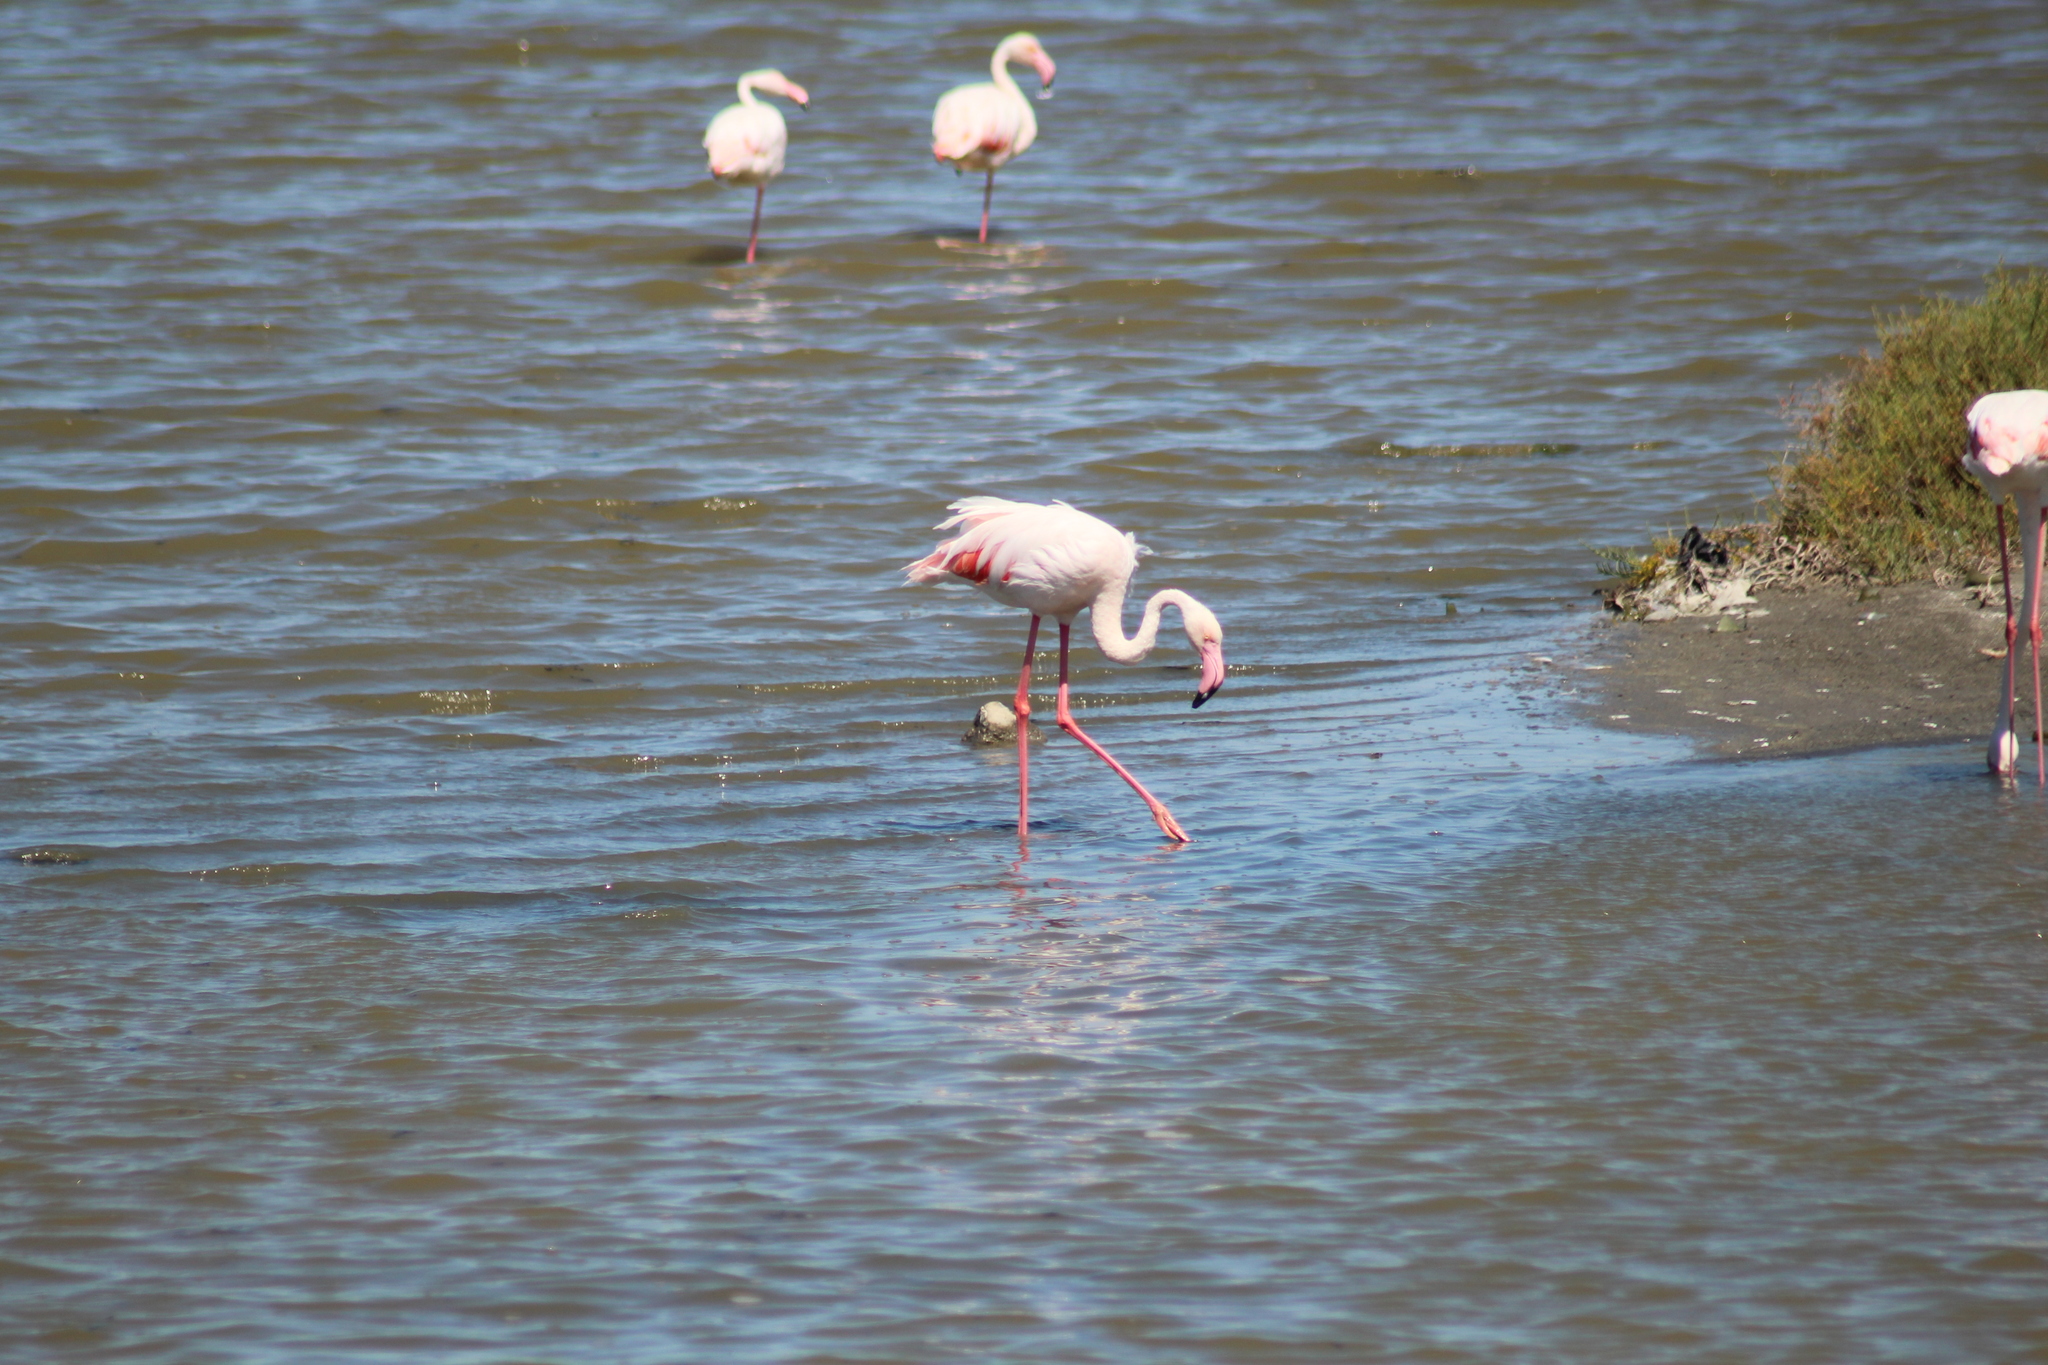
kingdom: Animalia
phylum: Chordata
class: Aves
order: Phoenicopteriformes
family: Phoenicopteridae
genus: Phoenicopterus
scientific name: Phoenicopterus roseus
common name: Greater flamingo
